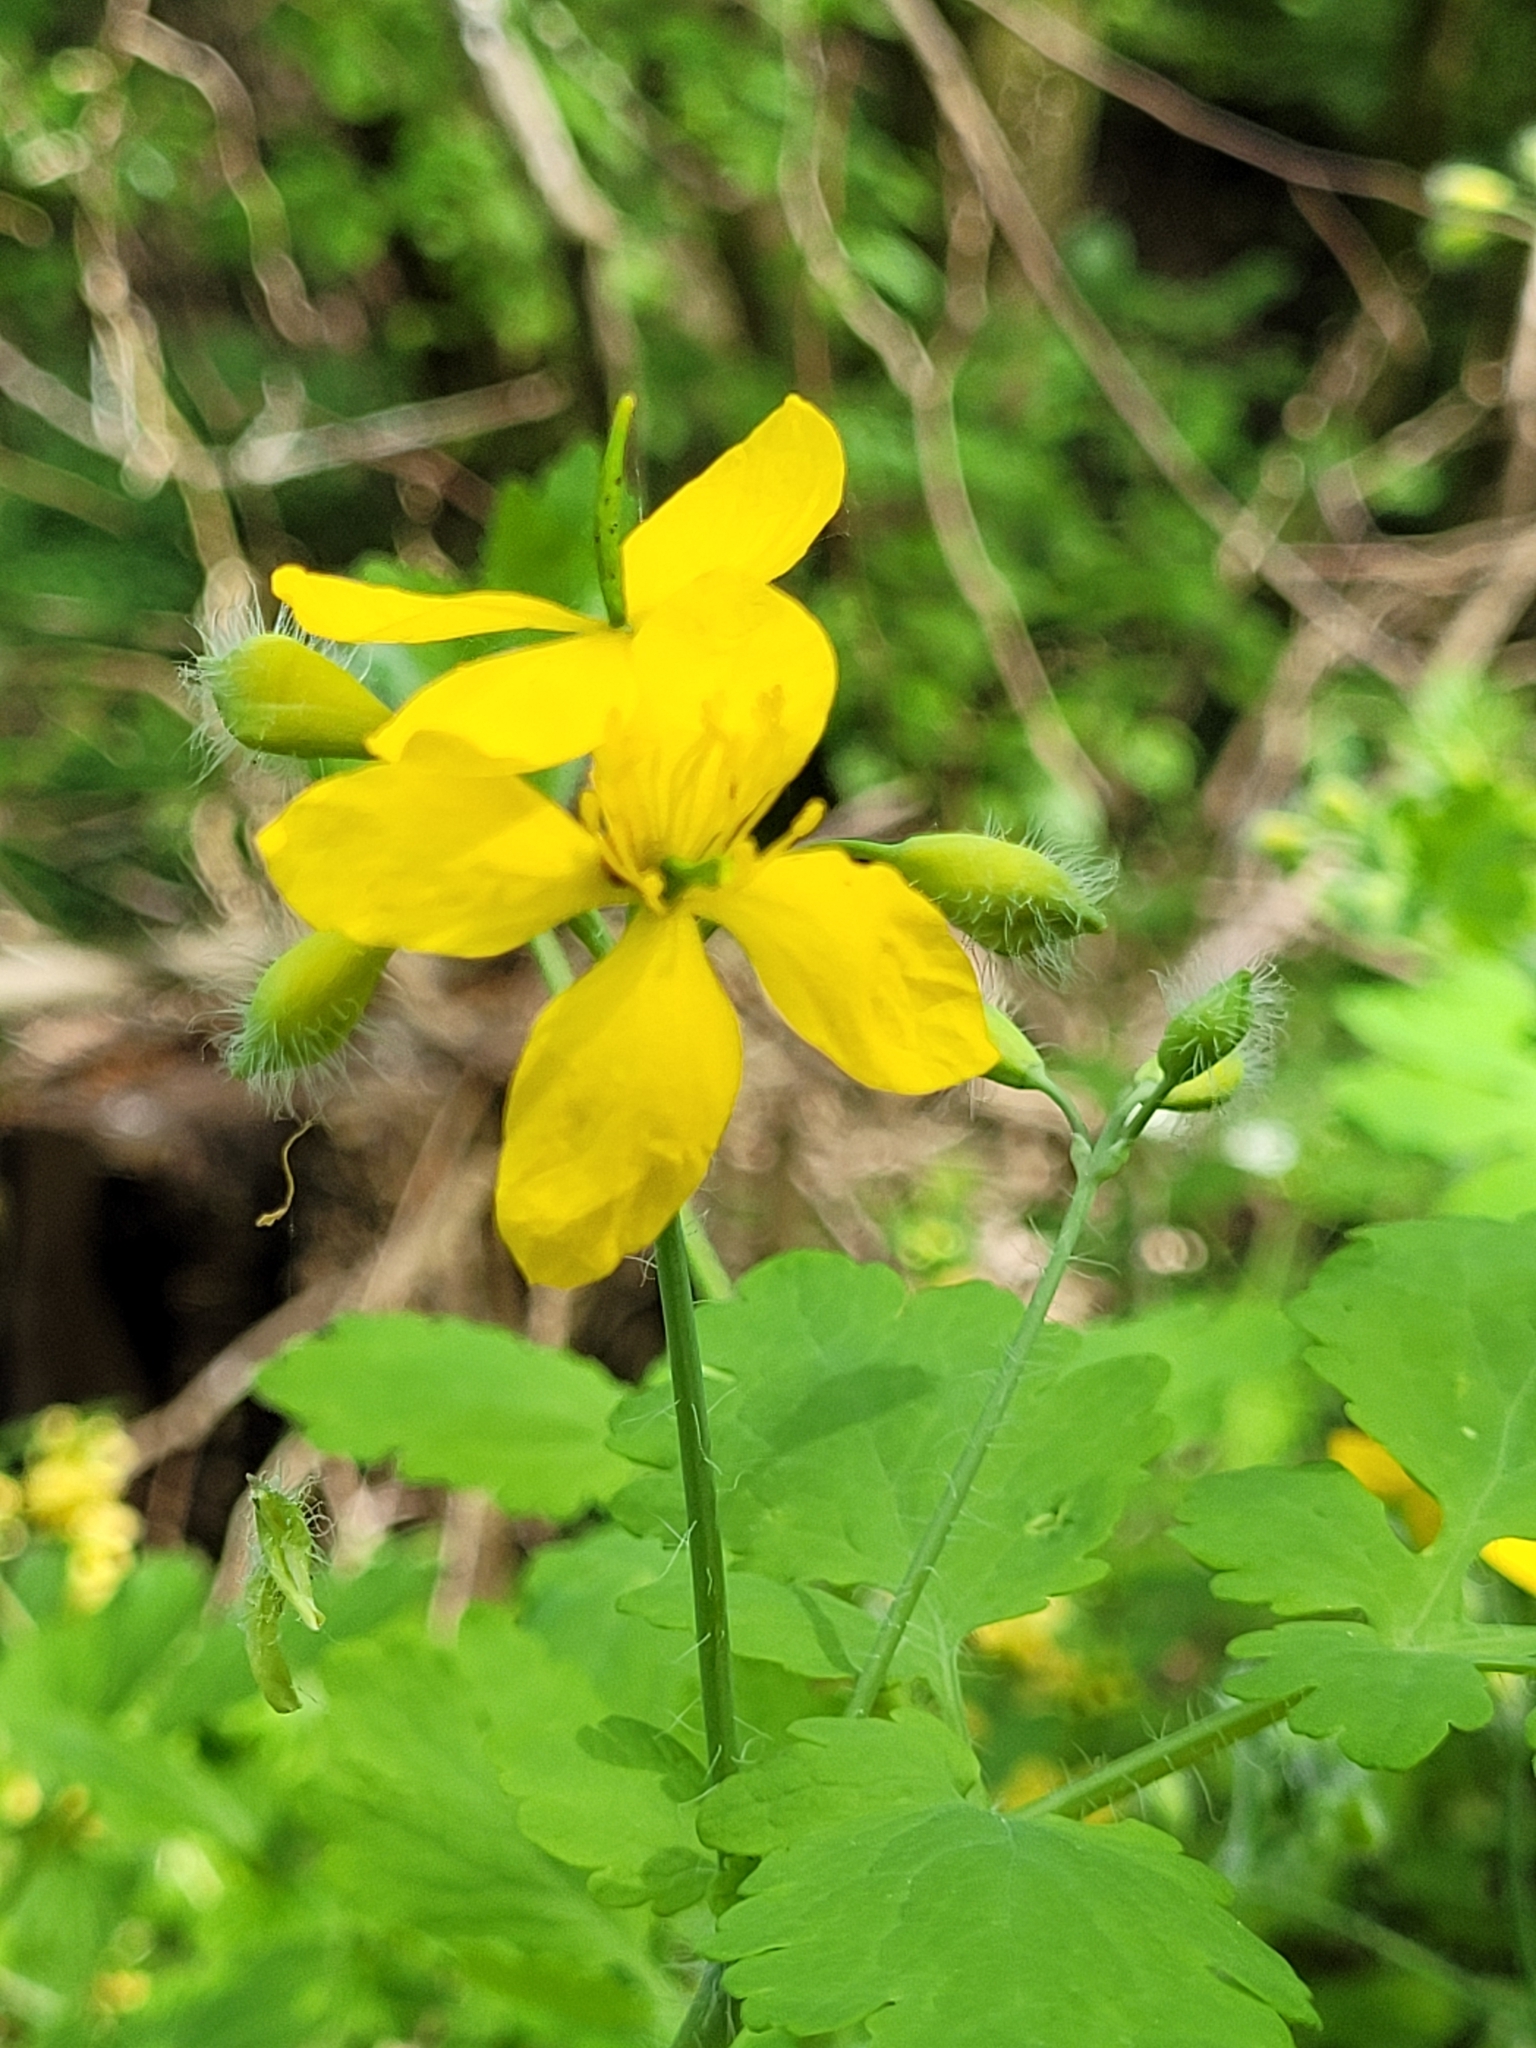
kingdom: Plantae
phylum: Tracheophyta
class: Magnoliopsida
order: Ranunculales
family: Papaveraceae
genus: Chelidonium
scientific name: Chelidonium majus
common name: Greater celandine
